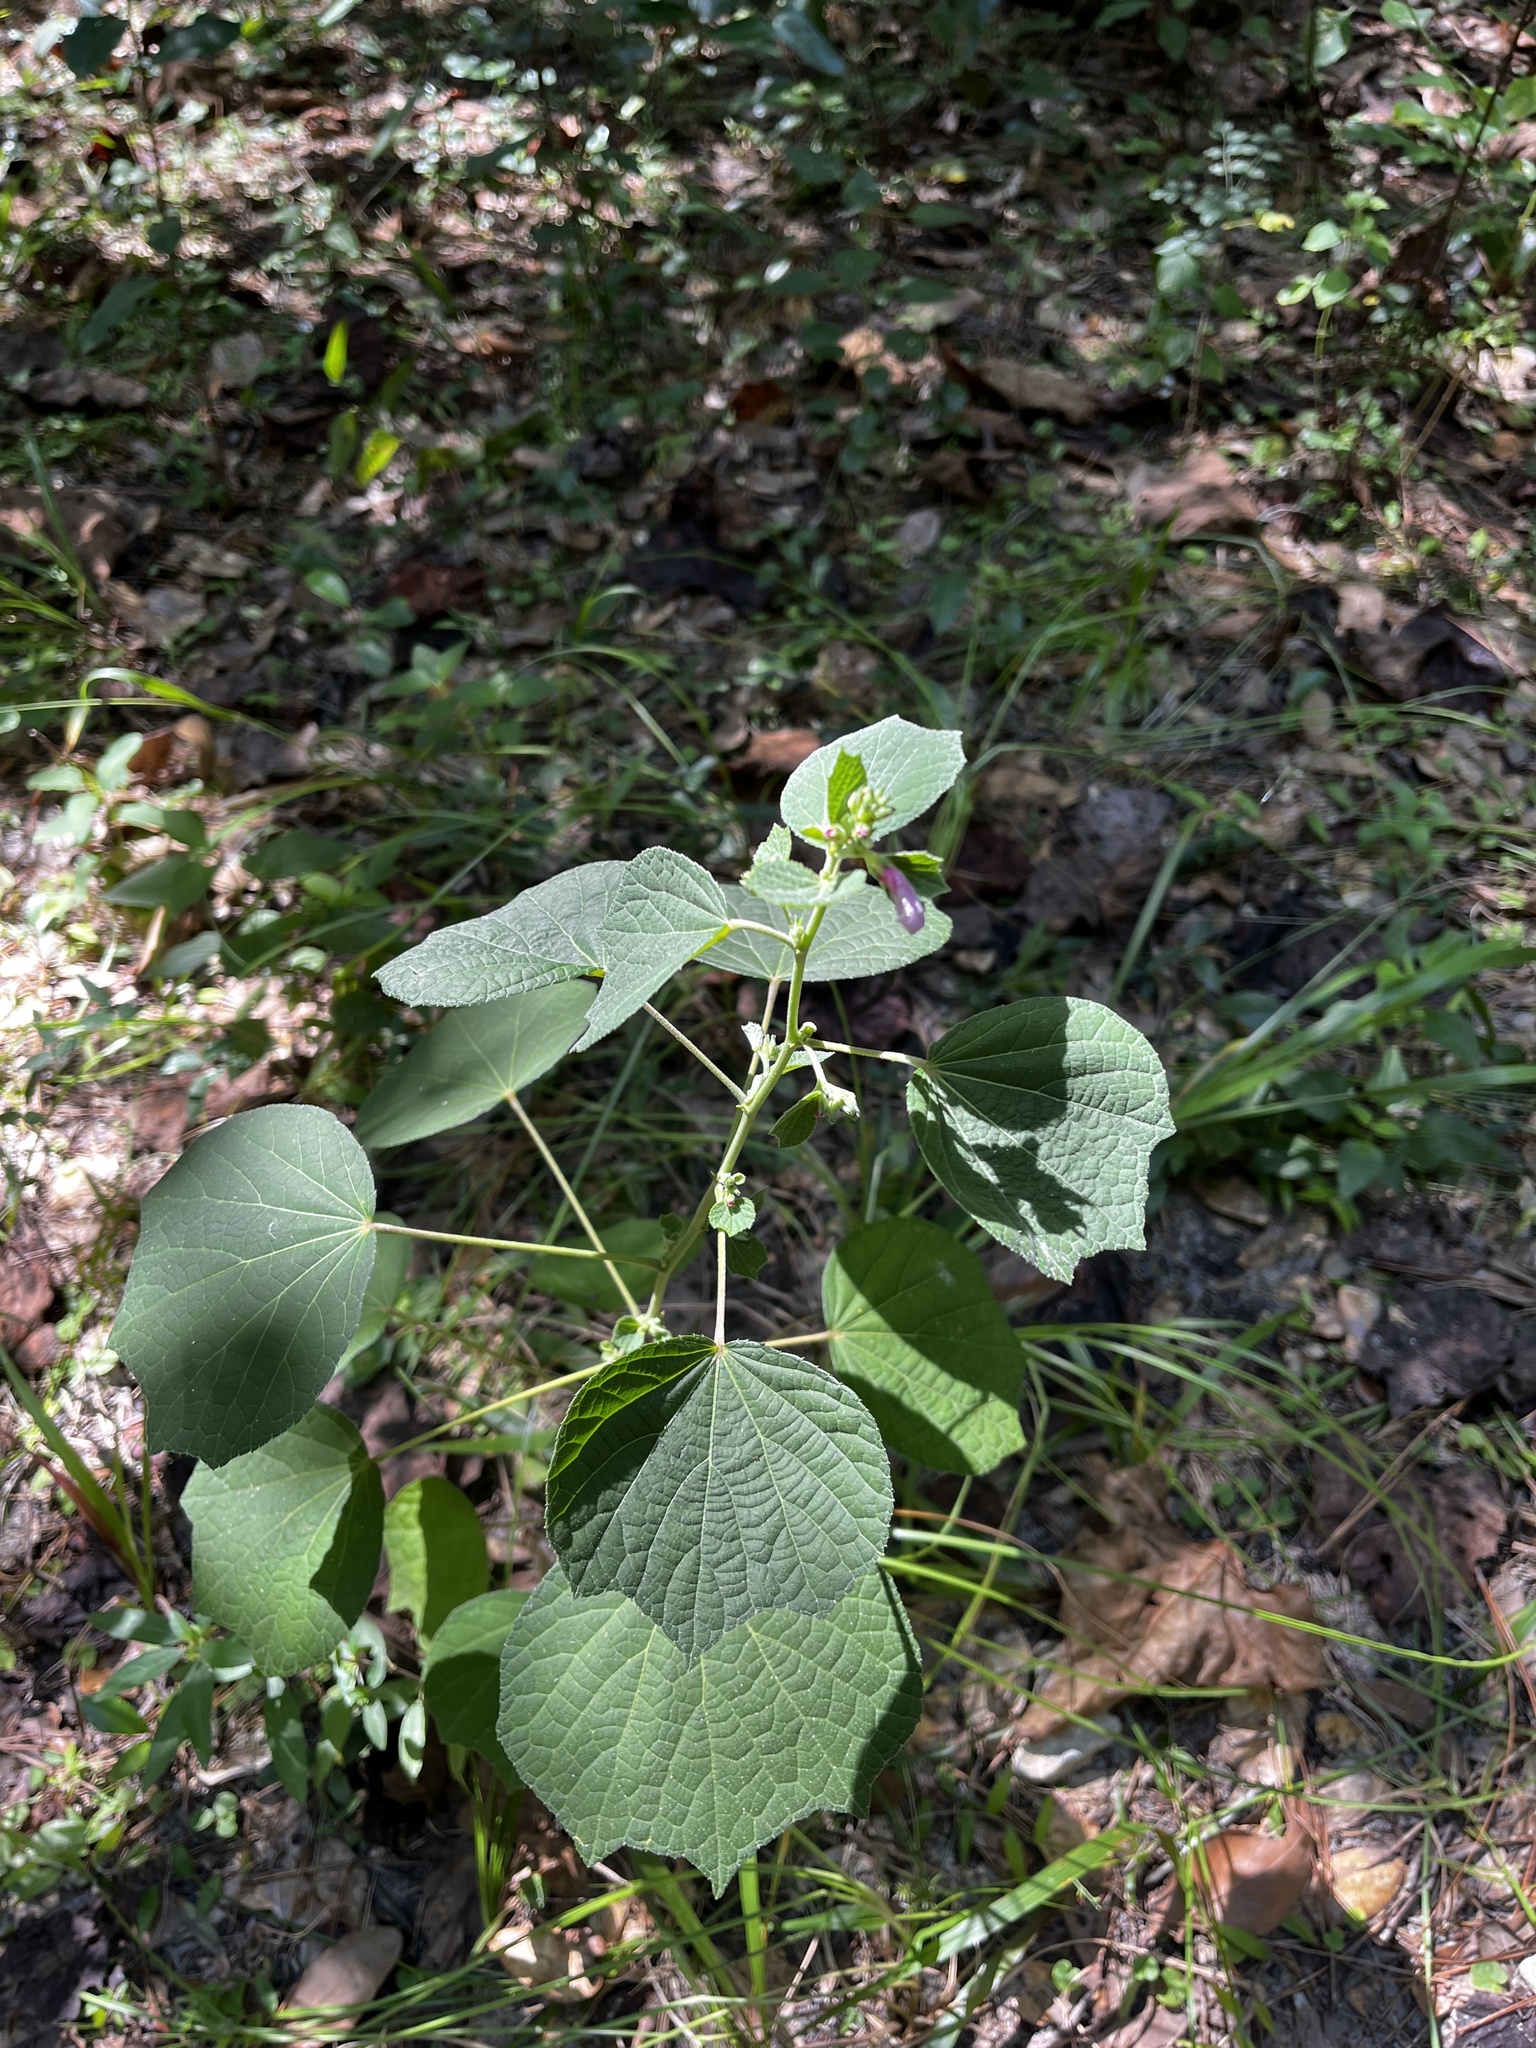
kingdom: Plantae
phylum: Tracheophyta
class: Magnoliopsida
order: Malvales
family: Malvaceae
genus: Urena
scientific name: Urena lobata
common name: Caesarweed
